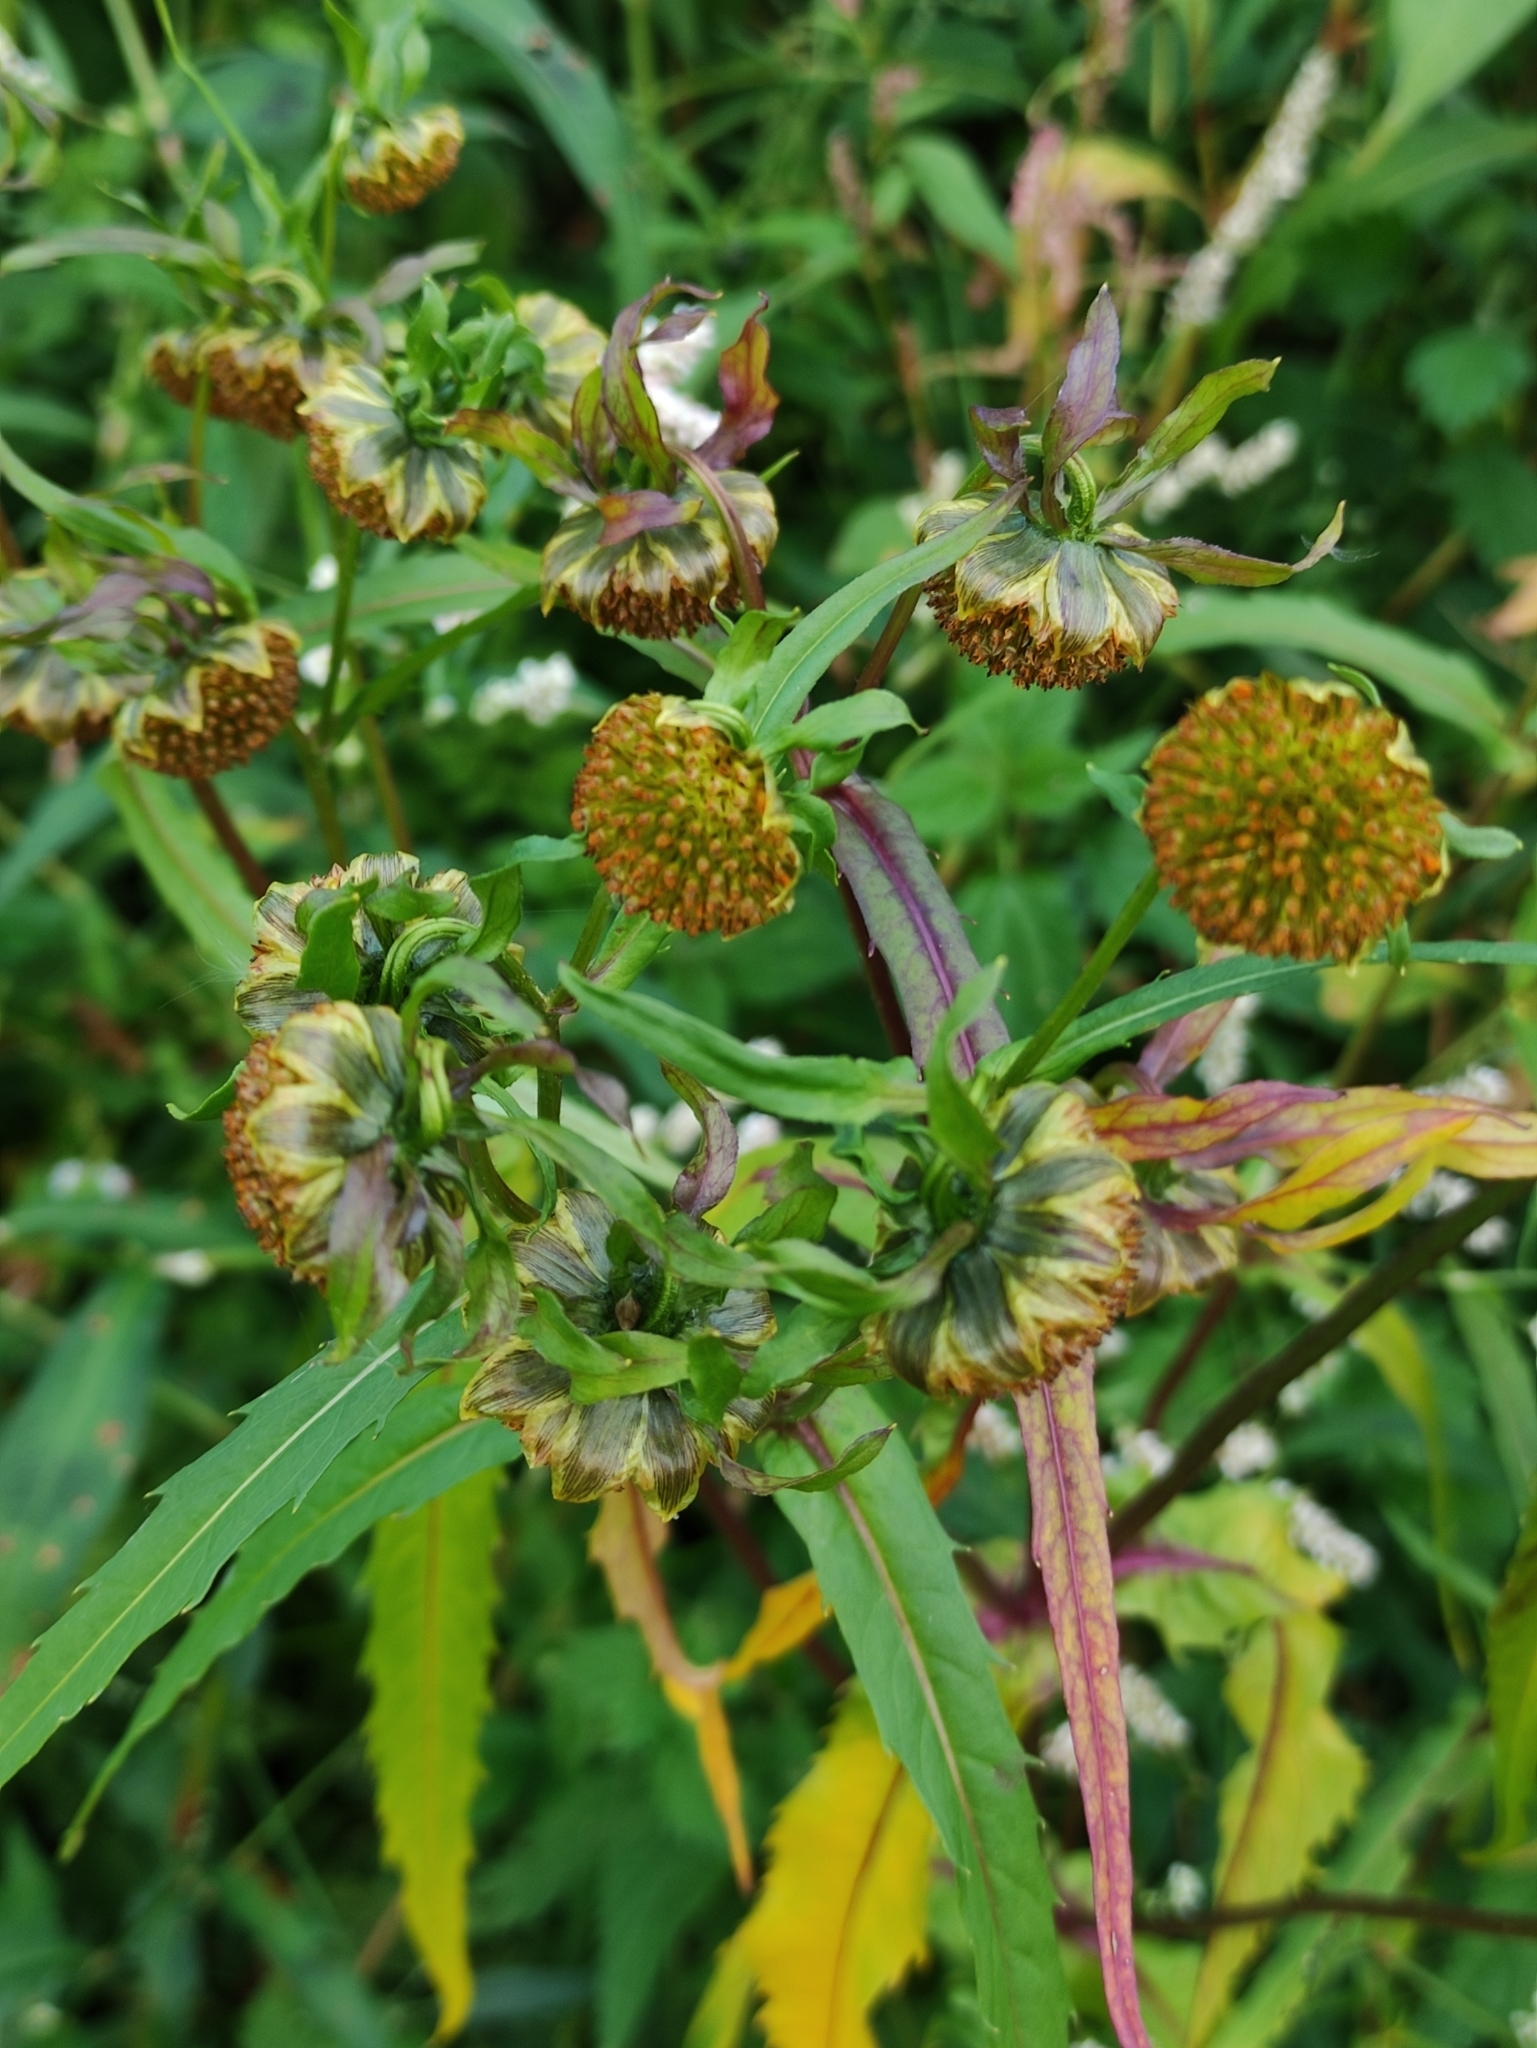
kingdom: Plantae
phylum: Tracheophyta
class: Magnoliopsida
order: Asterales
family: Asteraceae
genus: Bidens
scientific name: Bidens cernua
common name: Nodding bur-marigold
